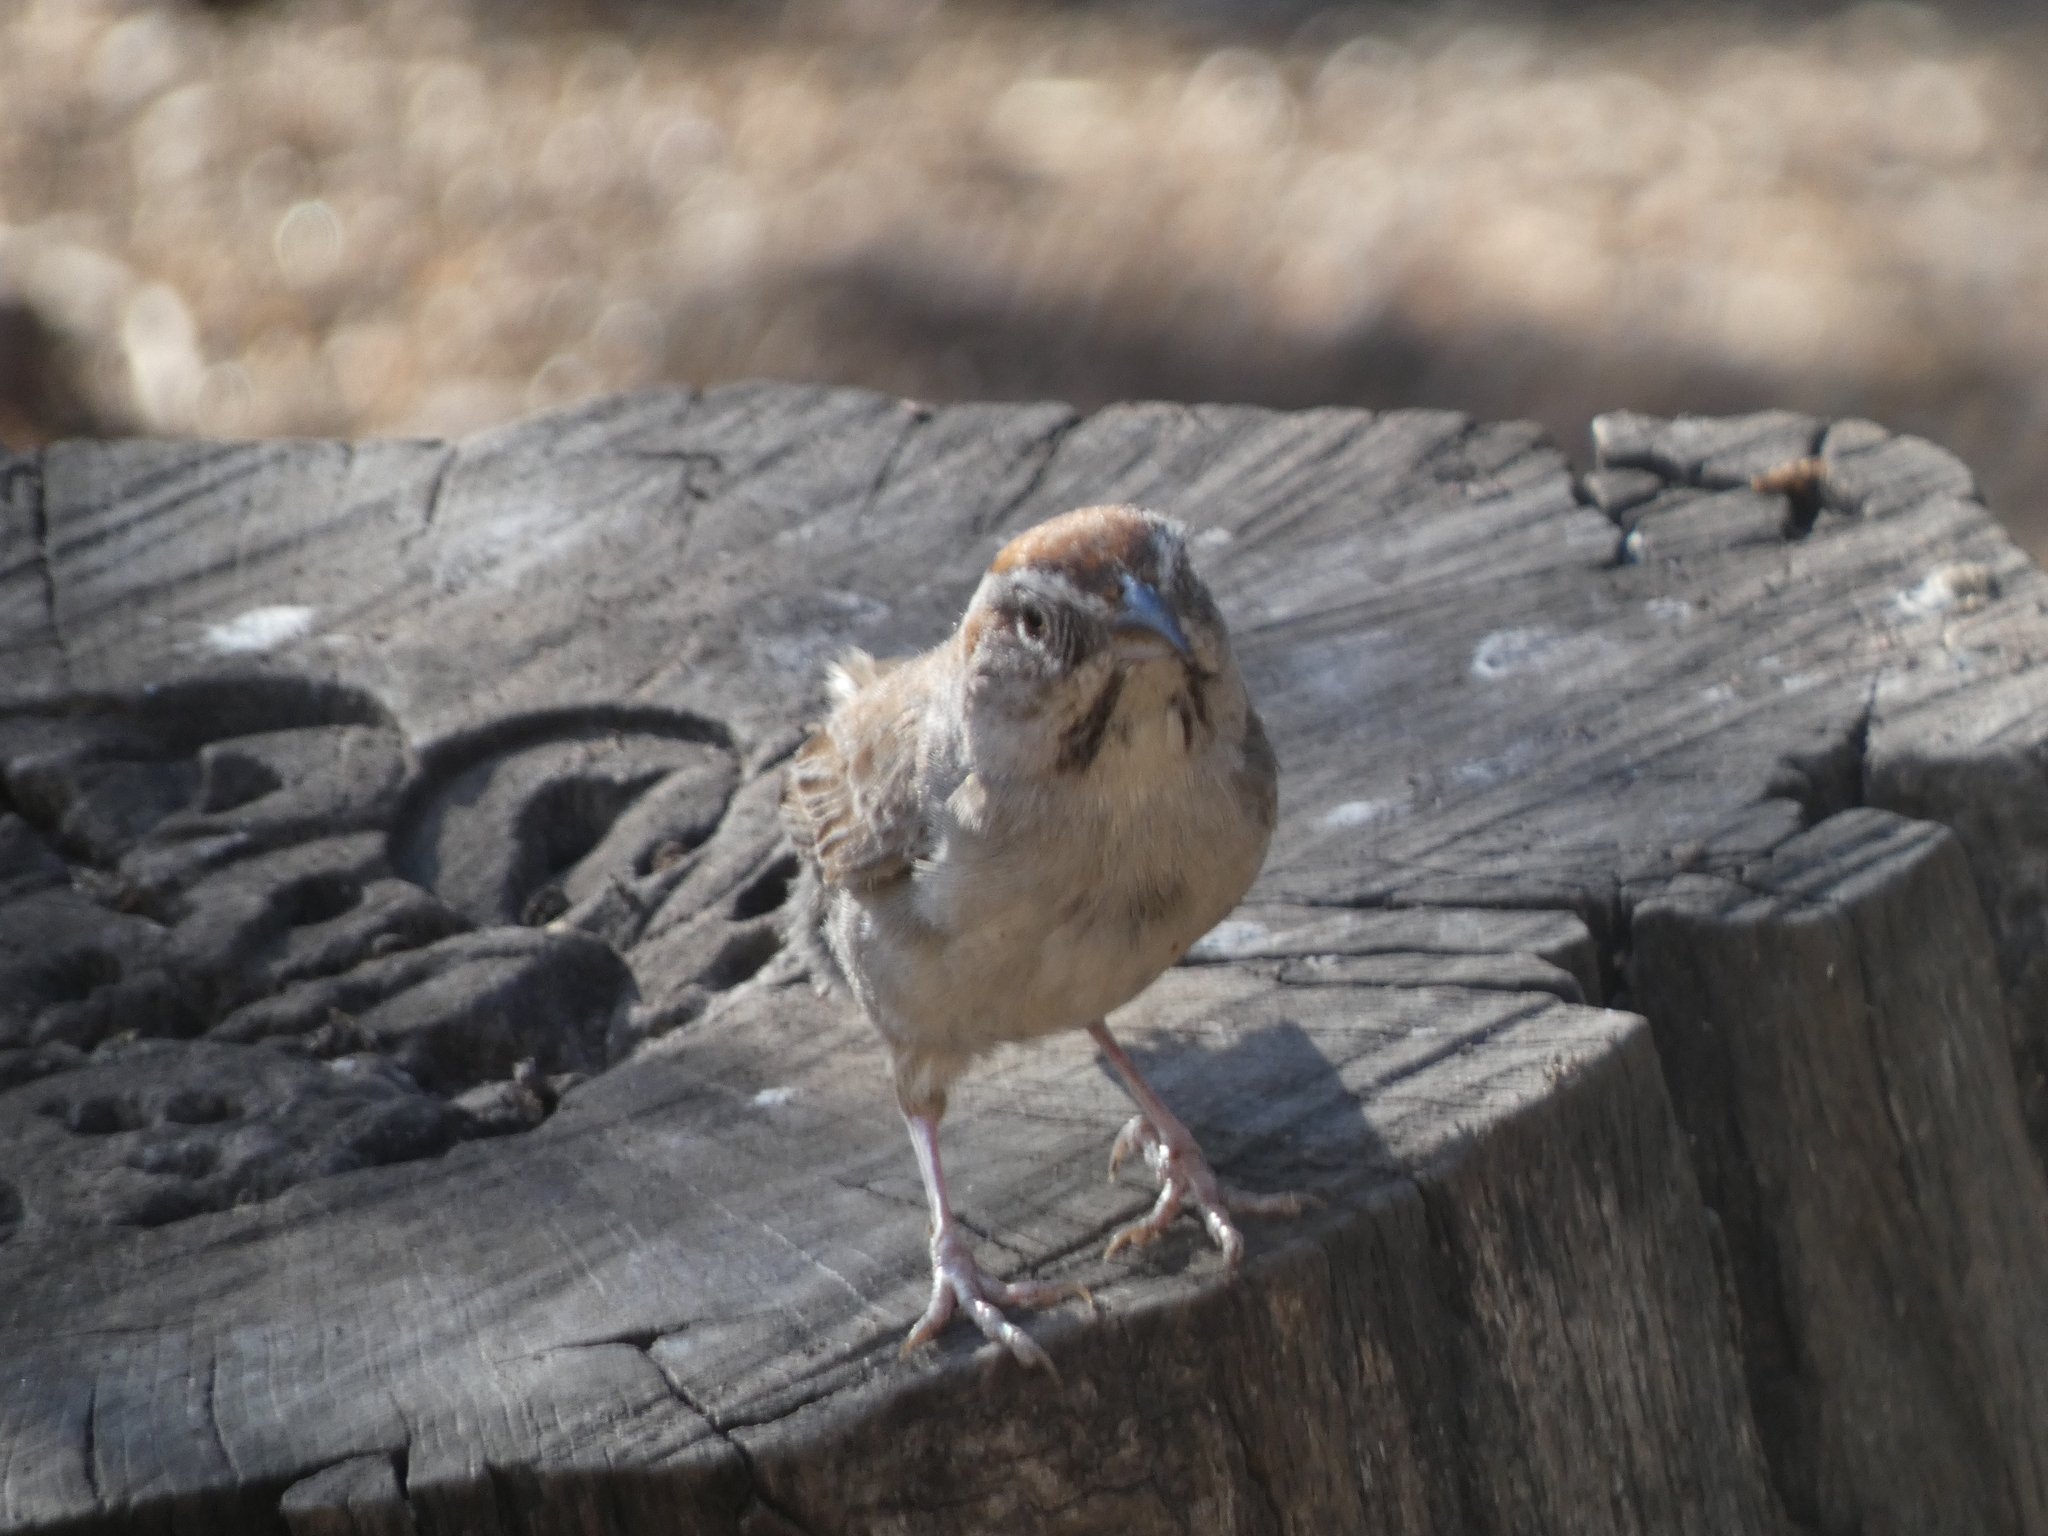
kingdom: Animalia
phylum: Chordata
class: Aves
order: Passeriformes
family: Passerellidae
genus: Aimophila
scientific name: Aimophila ruficeps
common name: Rufous-crowned sparrow
